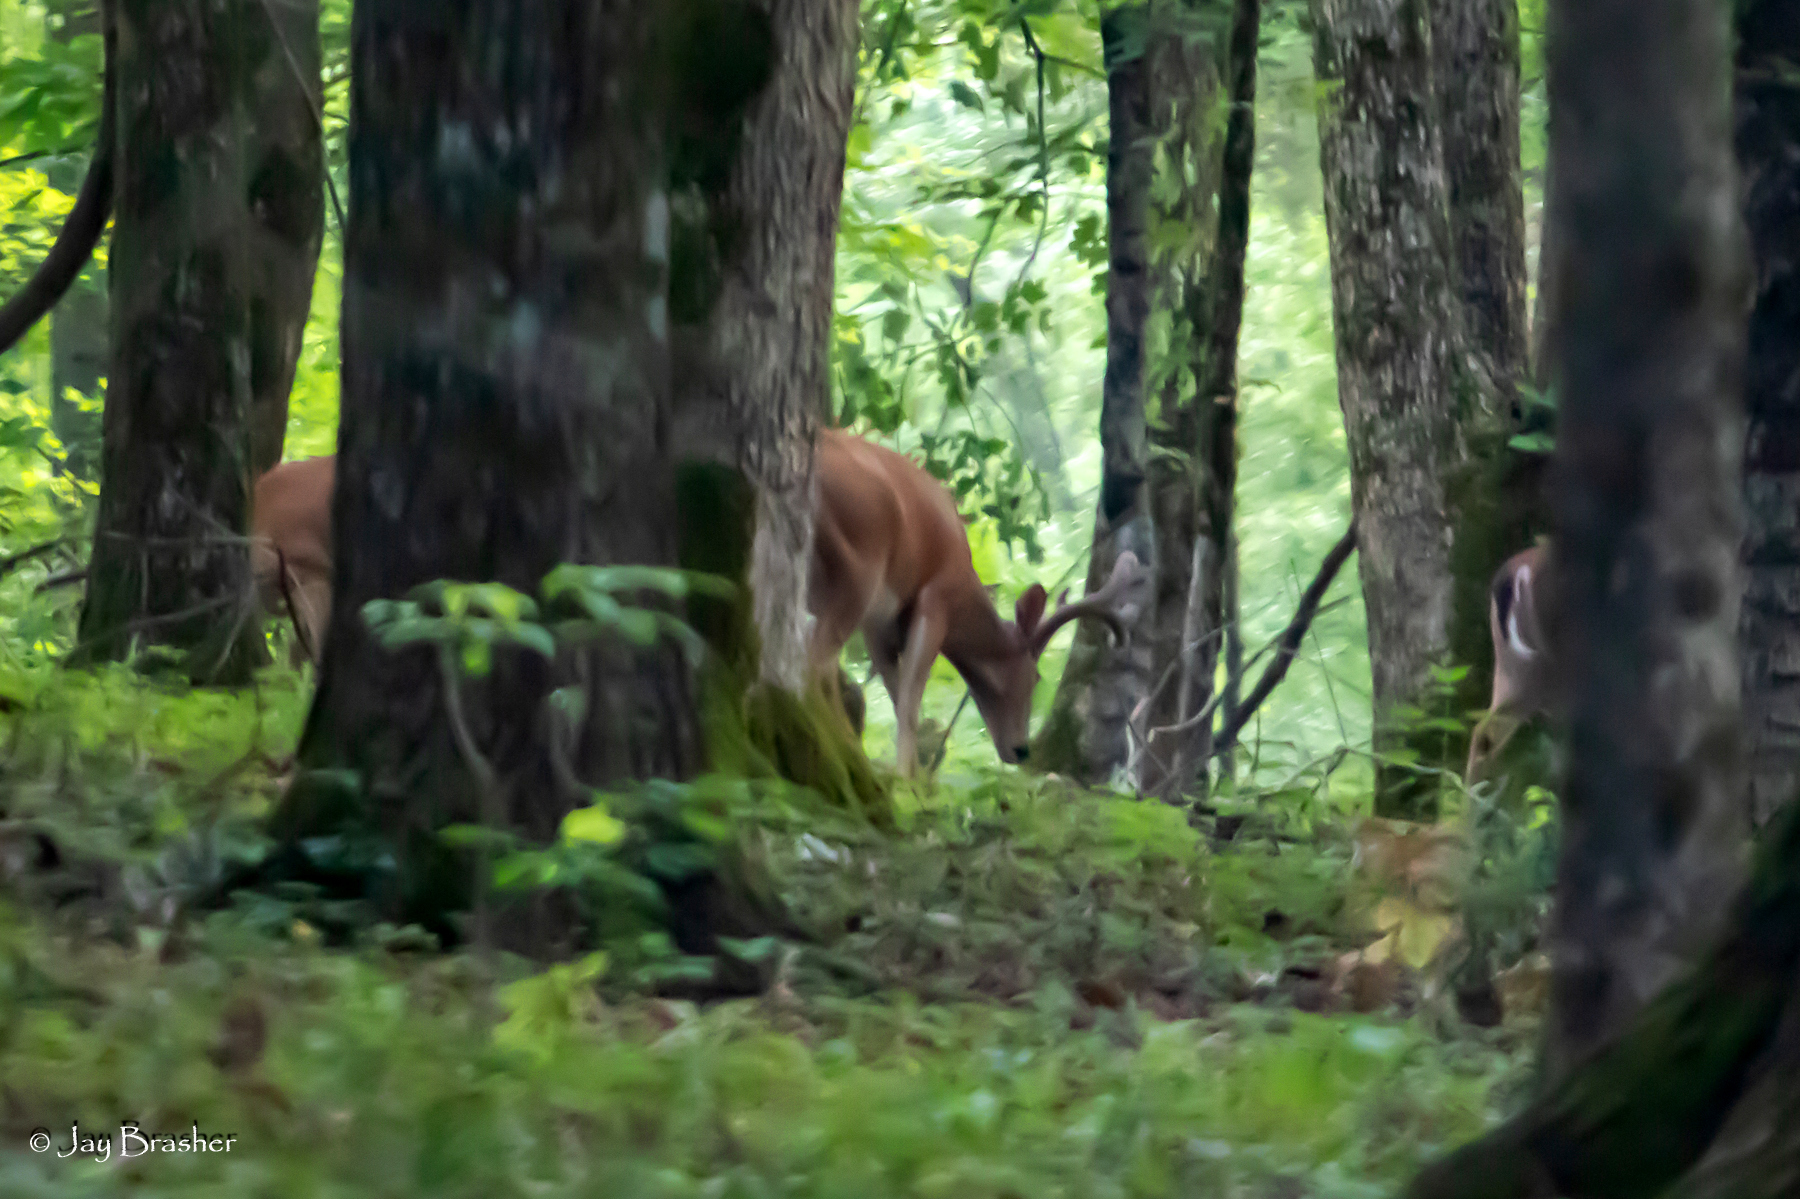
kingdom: Animalia
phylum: Chordata
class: Mammalia
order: Artiodactyla
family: Cervidae
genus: Odocoileus
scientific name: Odocoileus virginianus
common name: White-tailed deer
